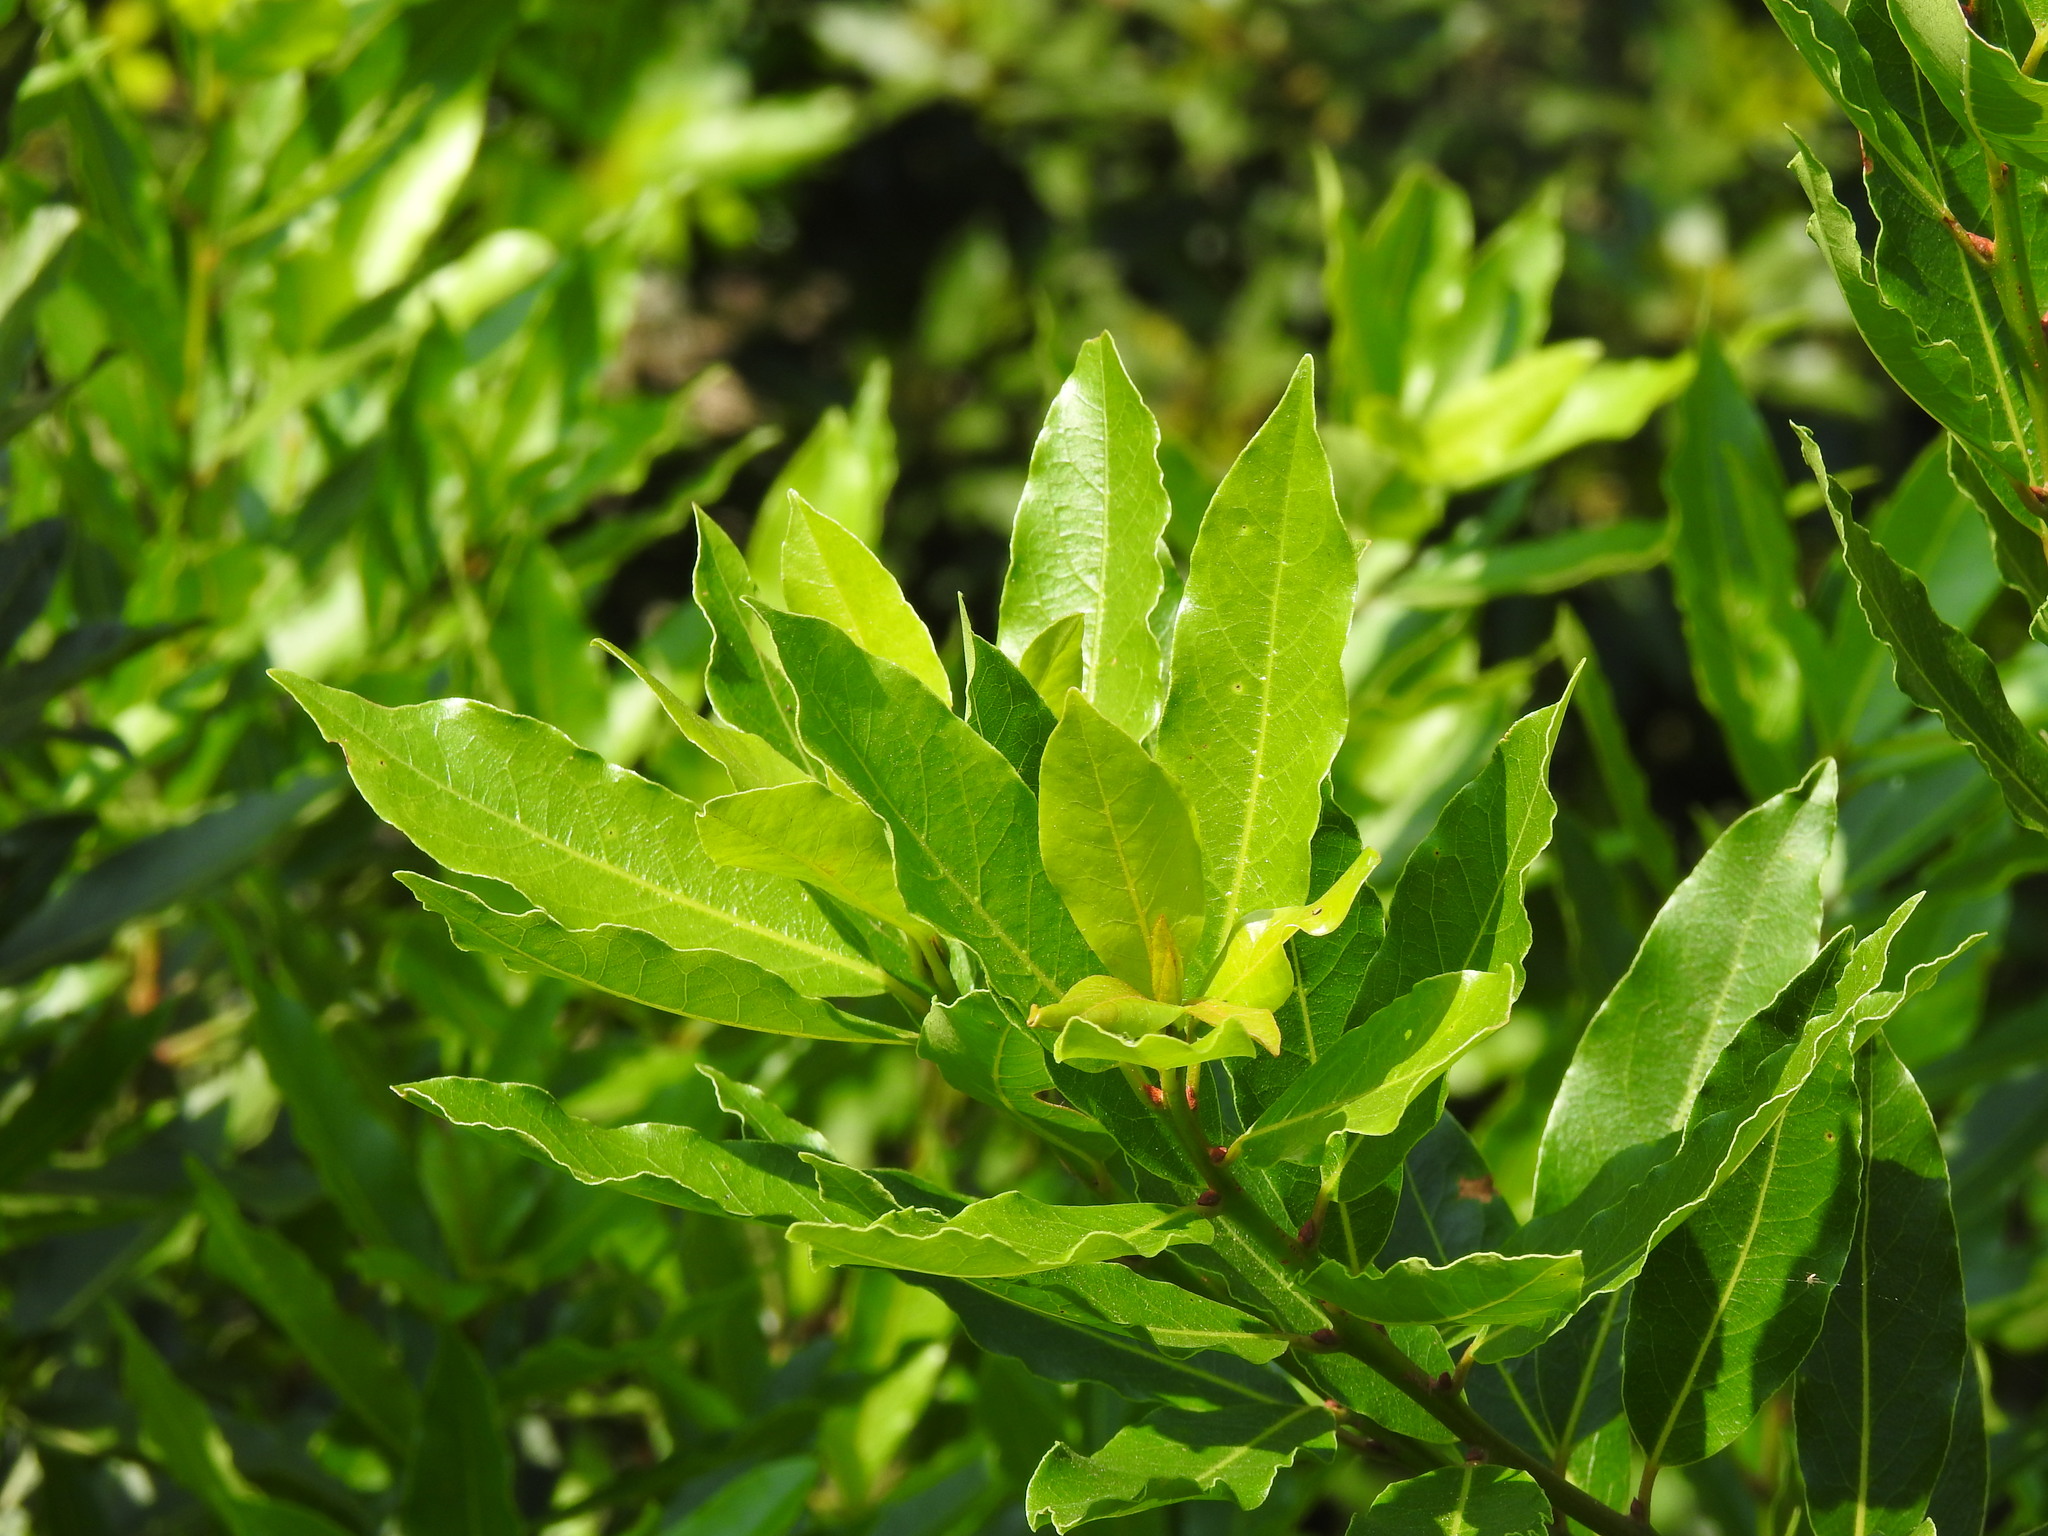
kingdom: Plantae
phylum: Tracheophyta
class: Magnoliopsida
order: Laurales
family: Lauraceae
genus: Laurus
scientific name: Laurus nobilis
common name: Bay
